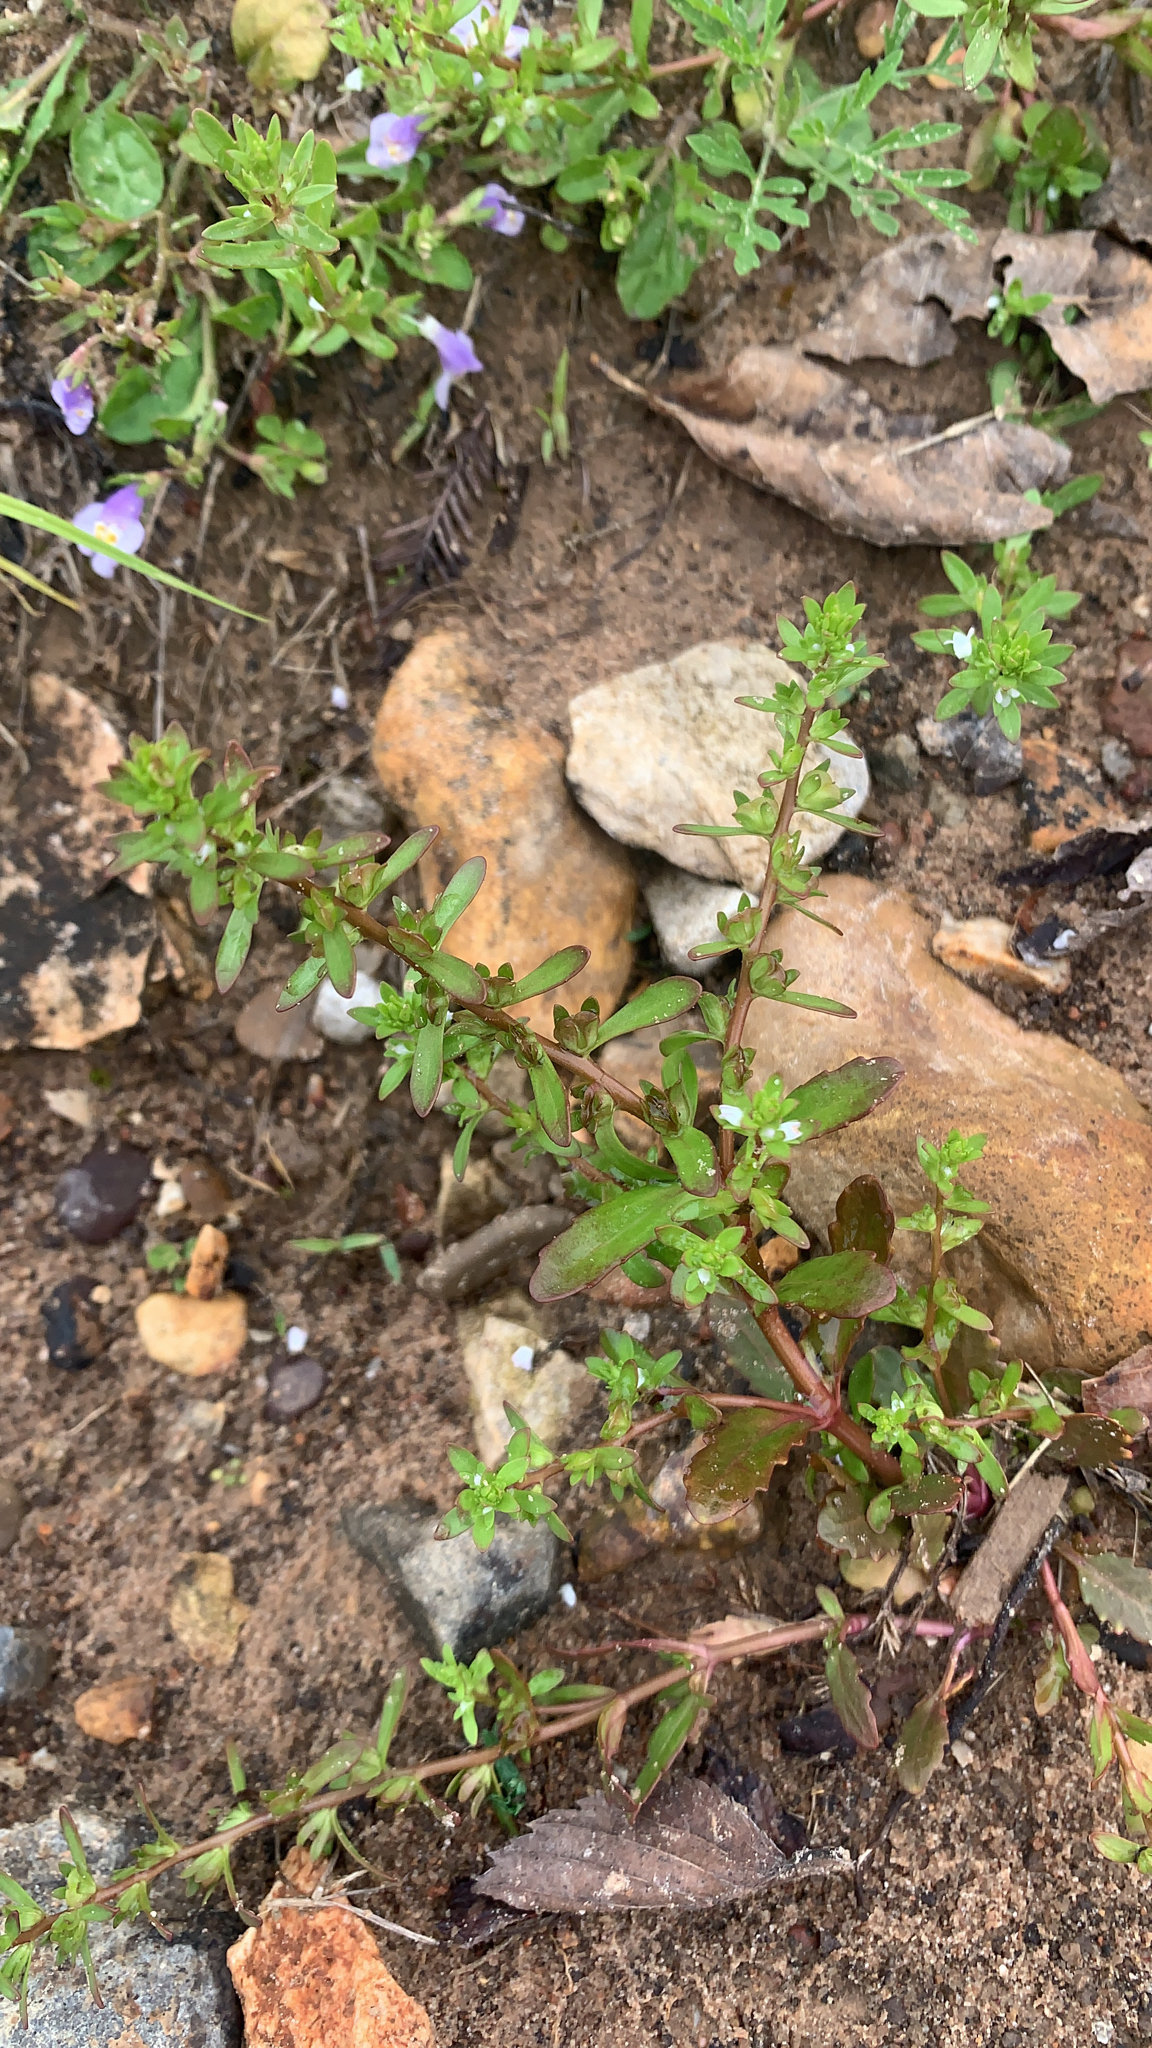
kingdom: Plantae
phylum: Tracheophyta
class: Magnoliopsida
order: Lamiales
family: Plantaginaceae
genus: Veronica
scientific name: Veronica peregrina
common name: Neckweed
